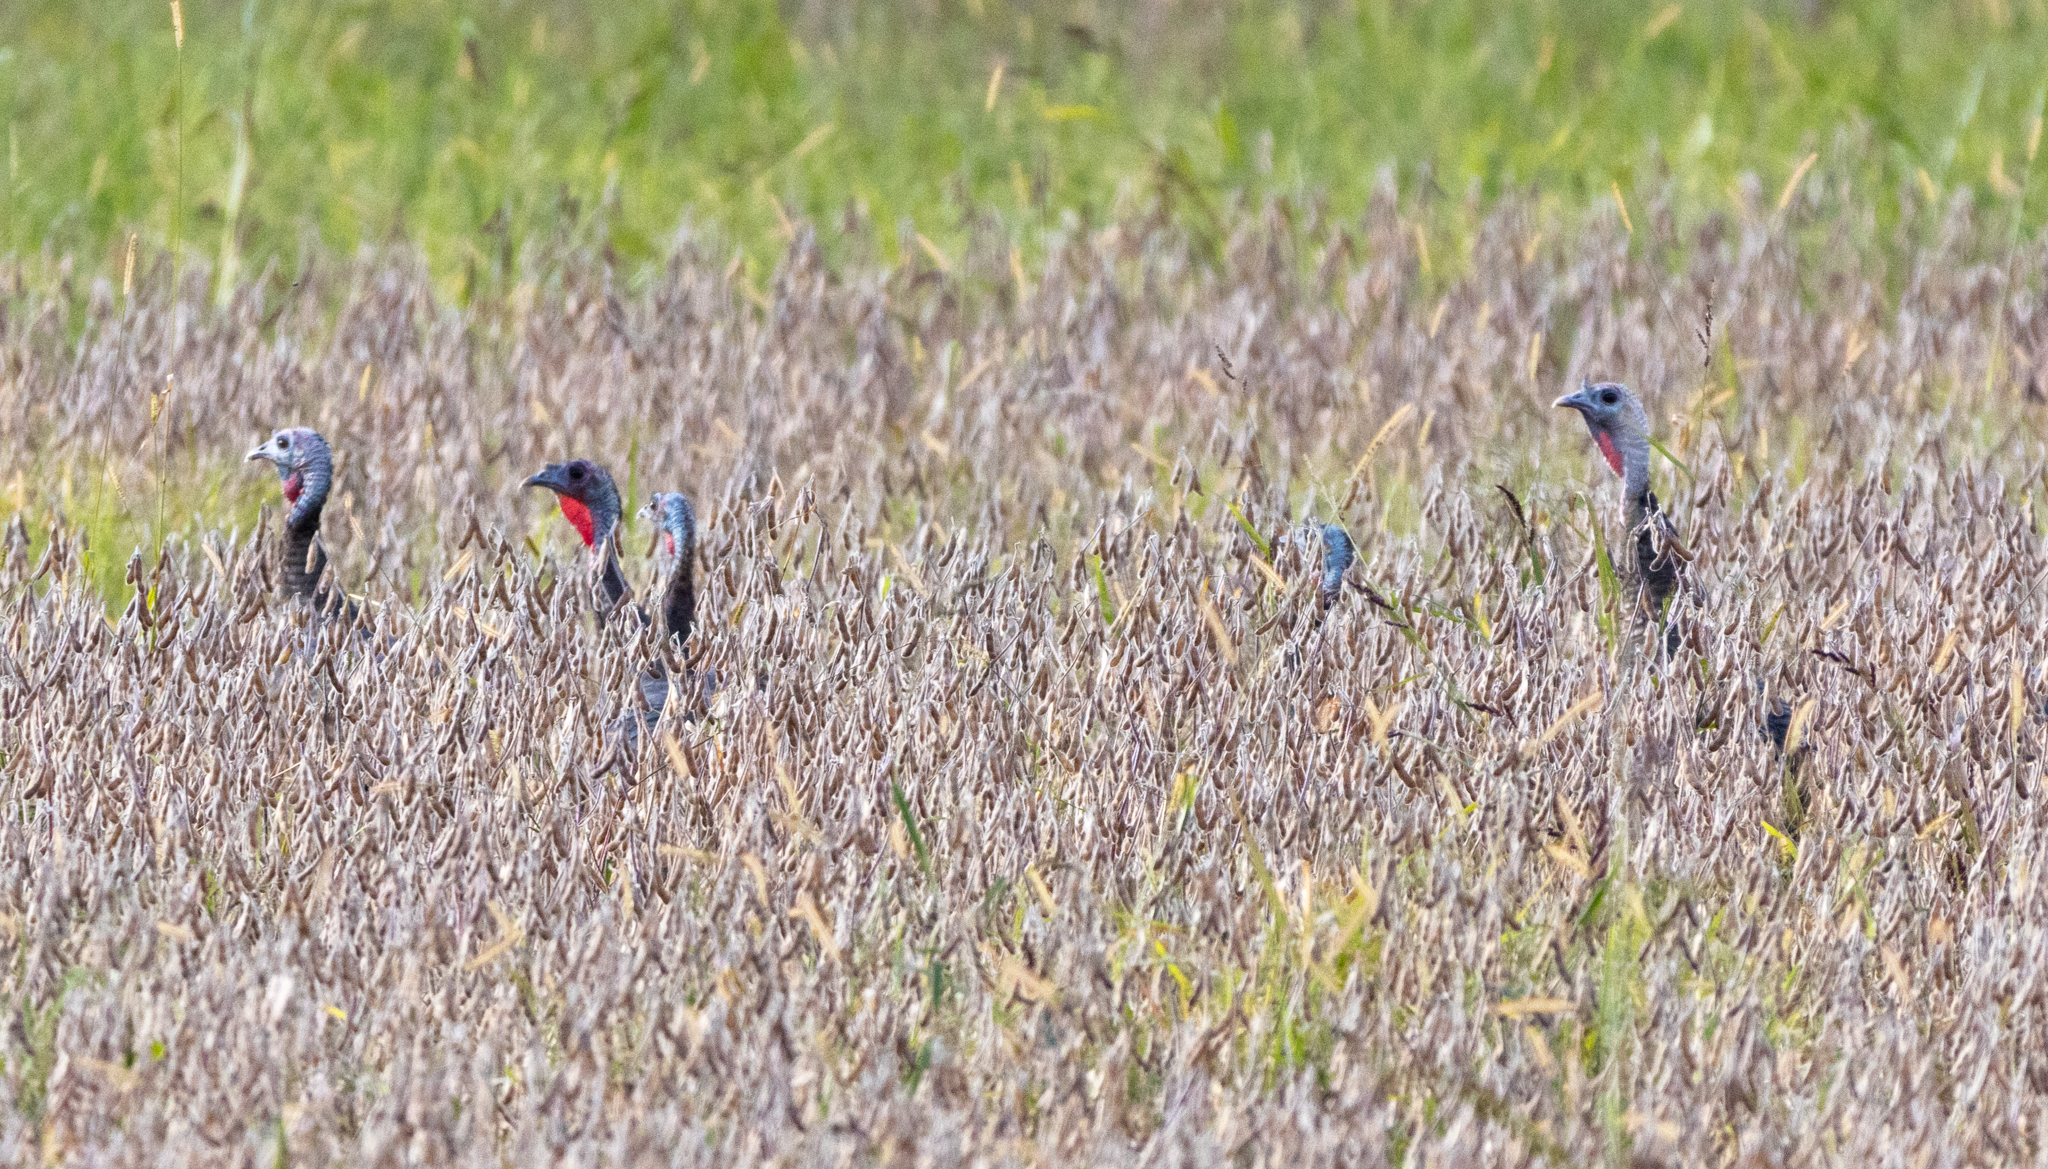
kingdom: Animalia
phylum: Chordata
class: Aves
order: Galliformes
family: Phasianidae
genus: Meleagris
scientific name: Meleagris gallopavo
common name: Wild turkey
